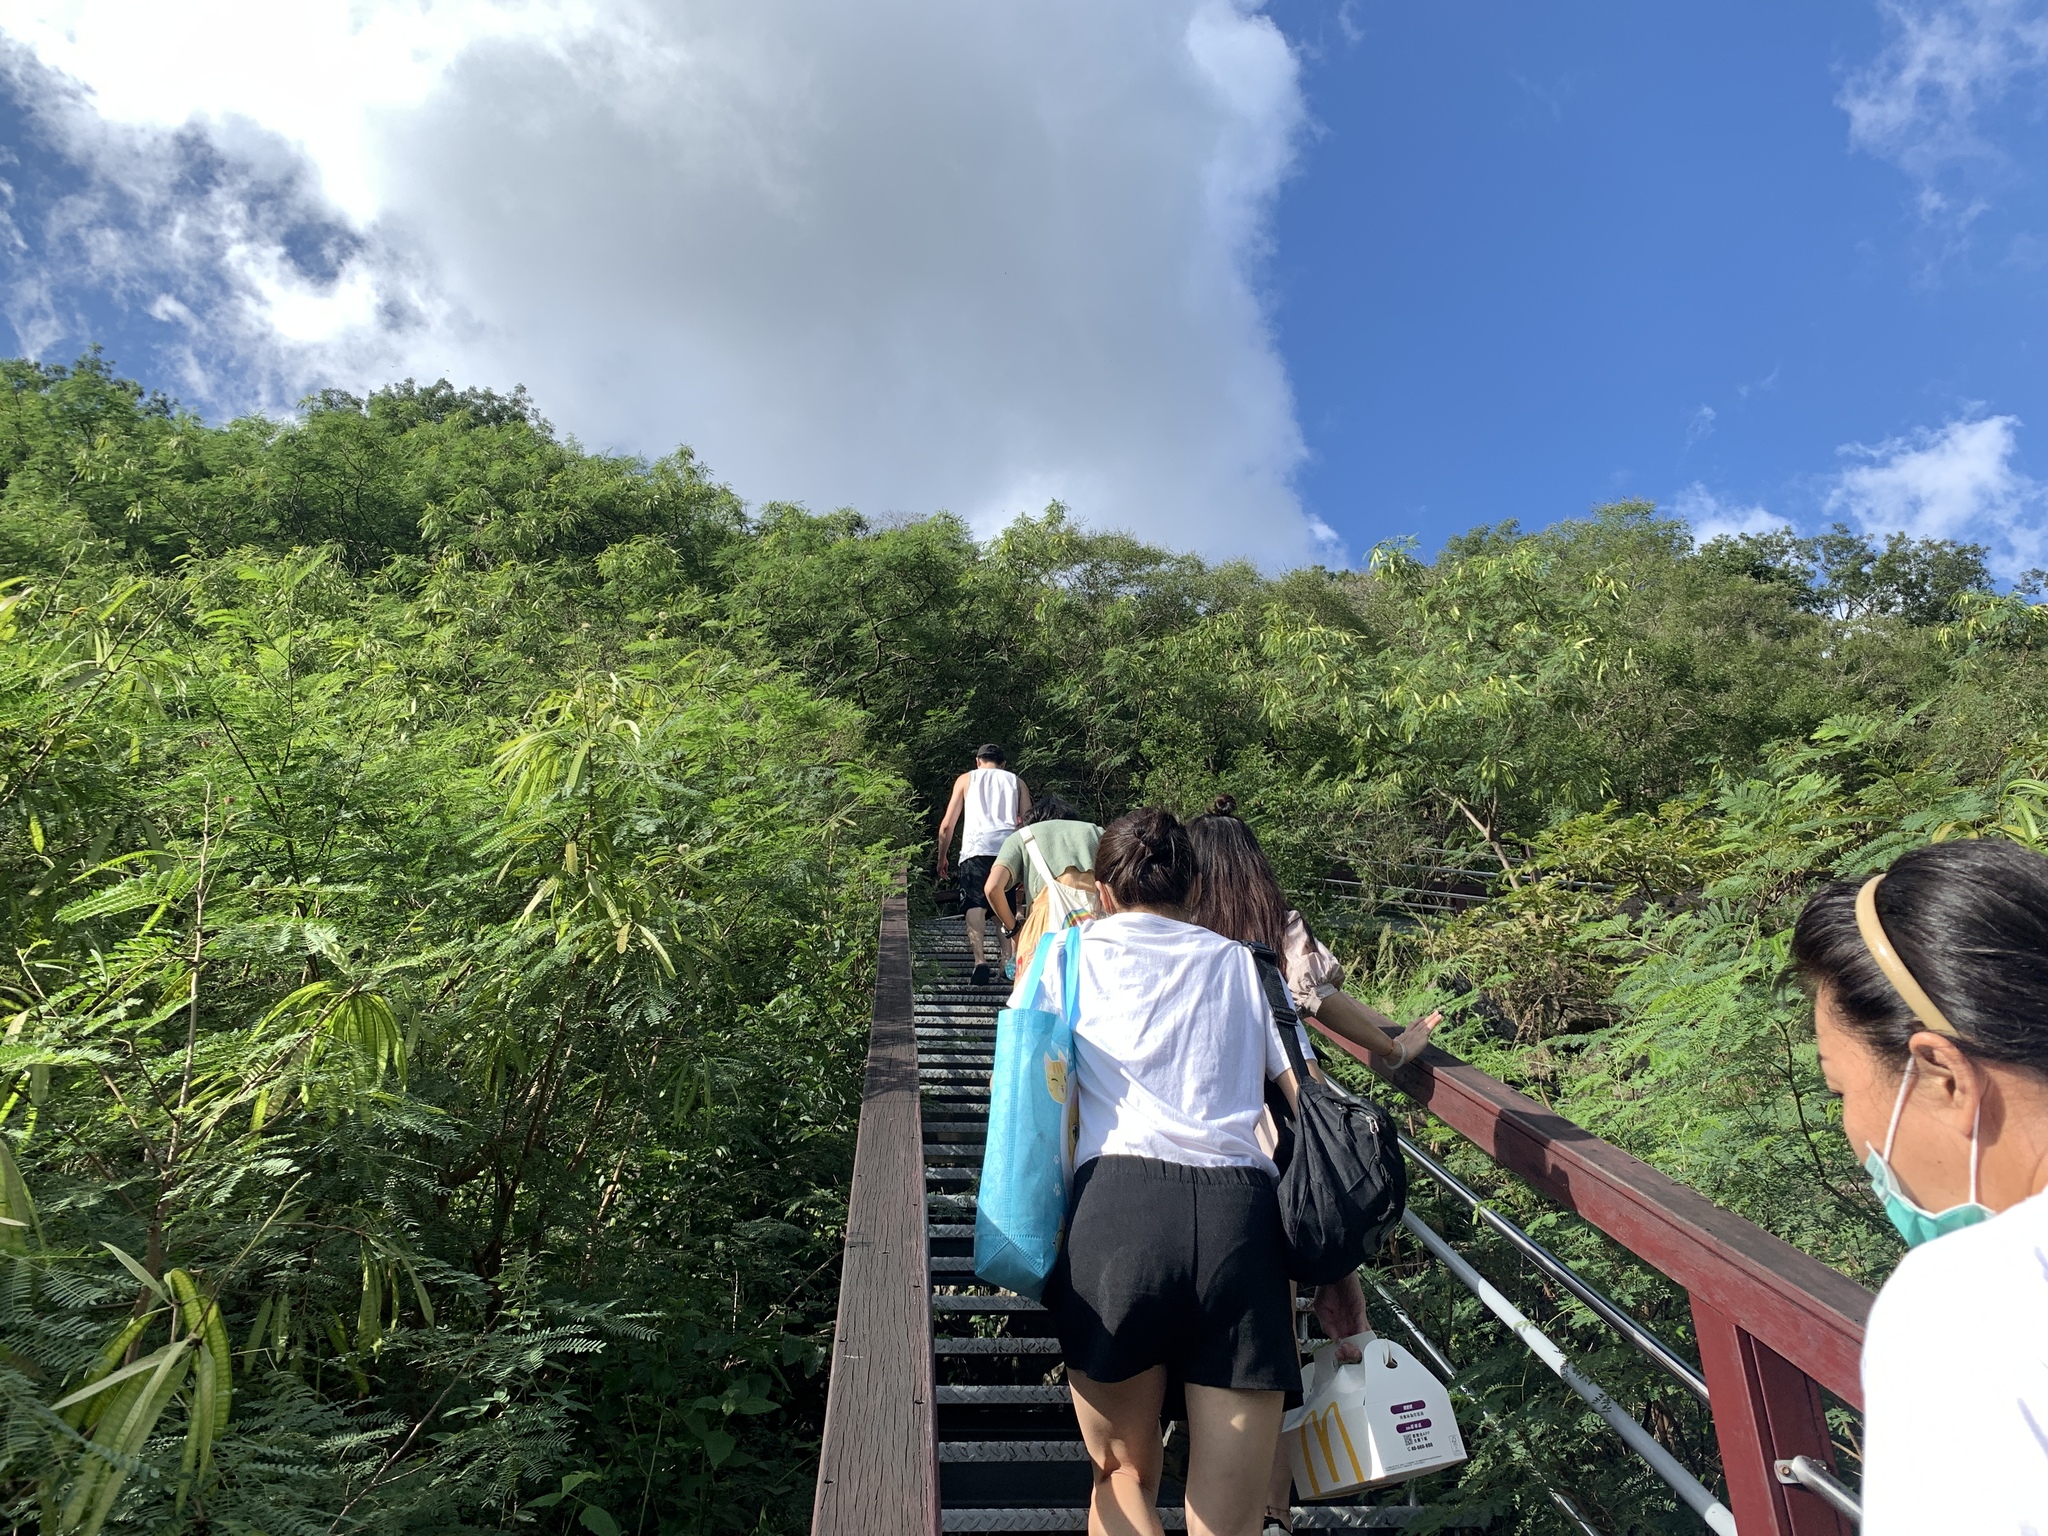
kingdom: Animalia
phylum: Arthropoda
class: Insecta
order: Hemiptera
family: Pentatomidae
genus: Menida
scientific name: Menida lata
